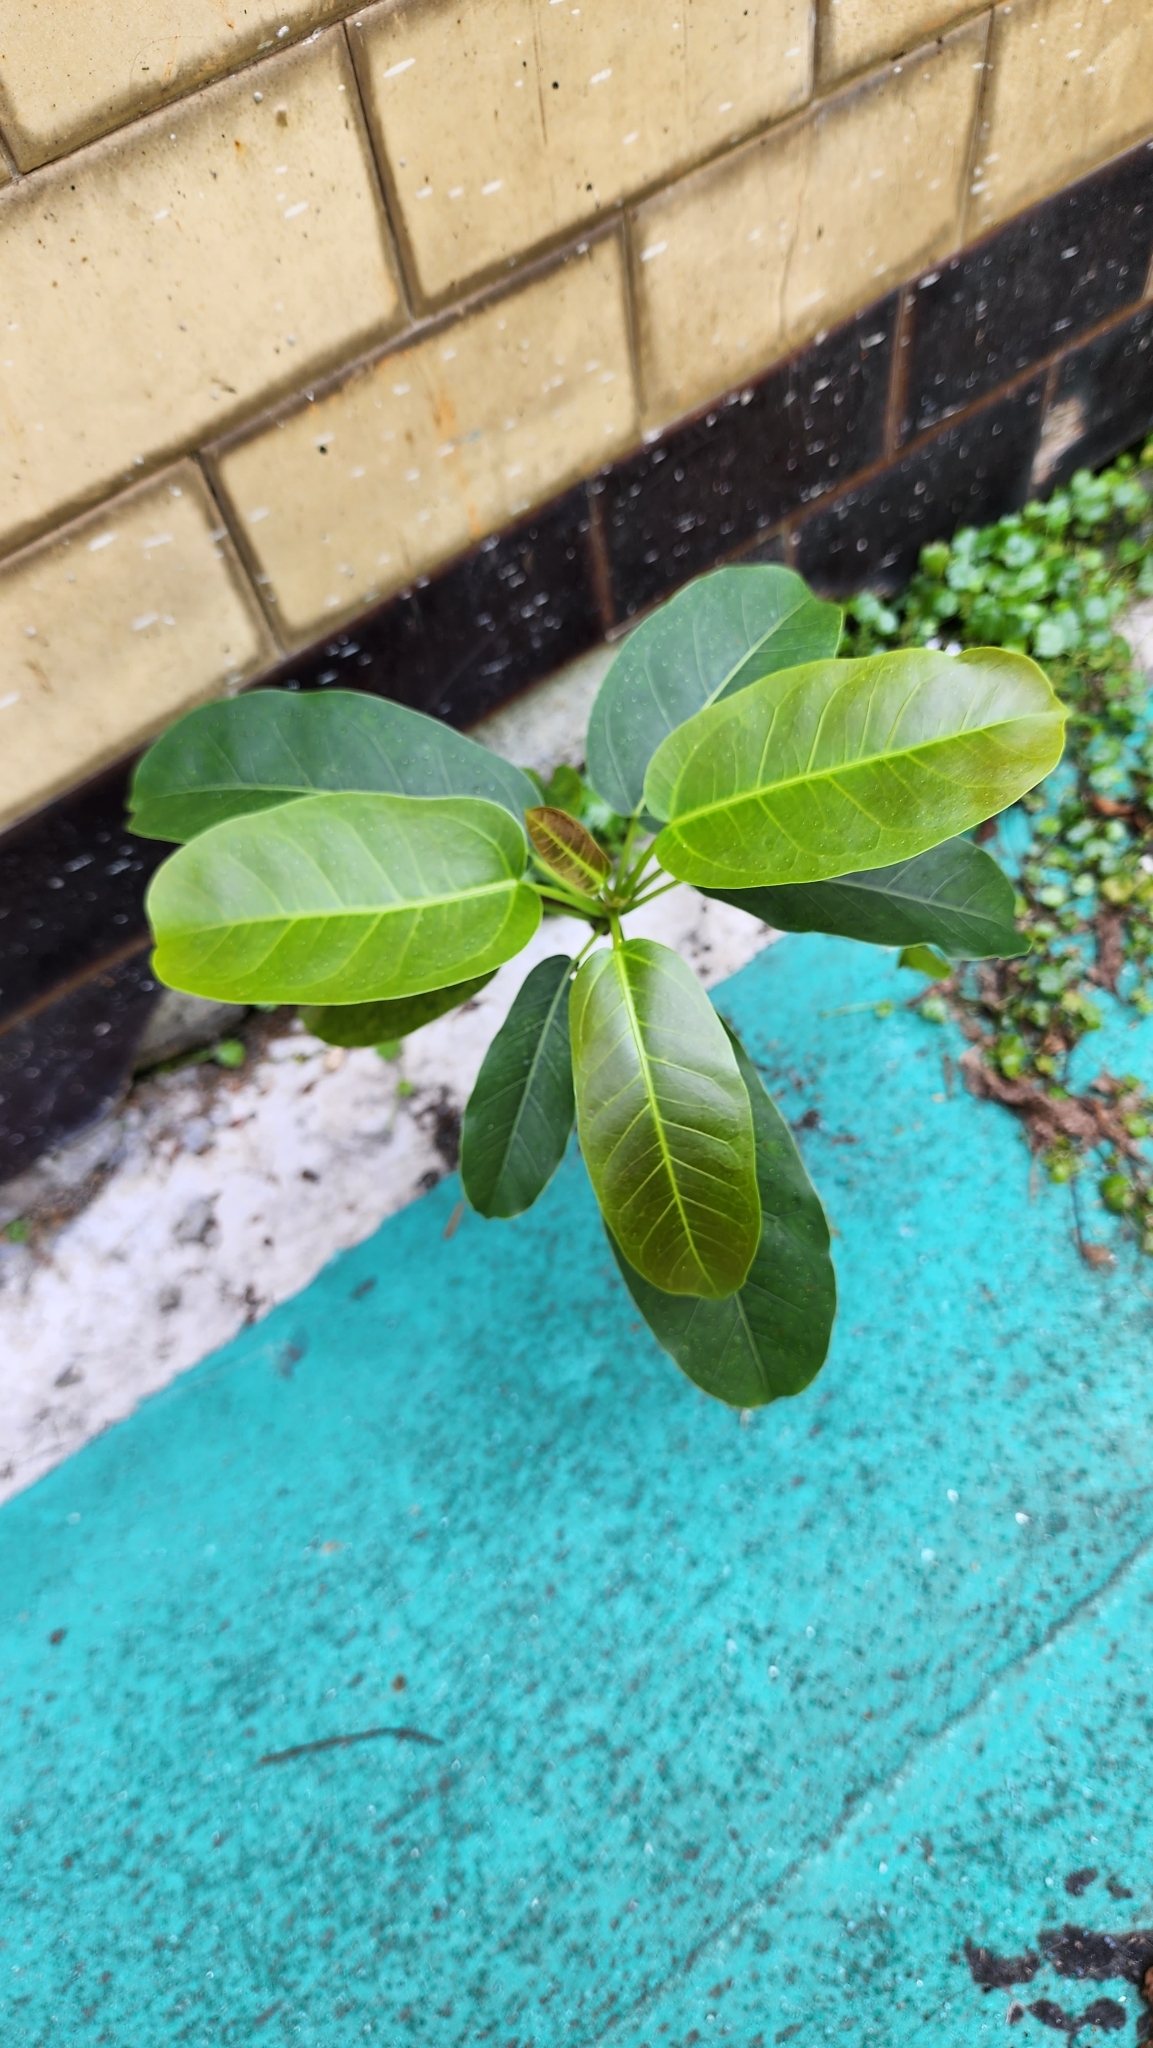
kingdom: Plantae
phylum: Tracheophyta
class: Magnoliopsida
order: Rosales
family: Moraceae
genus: Ficus
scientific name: Ficus subpisocarpa
